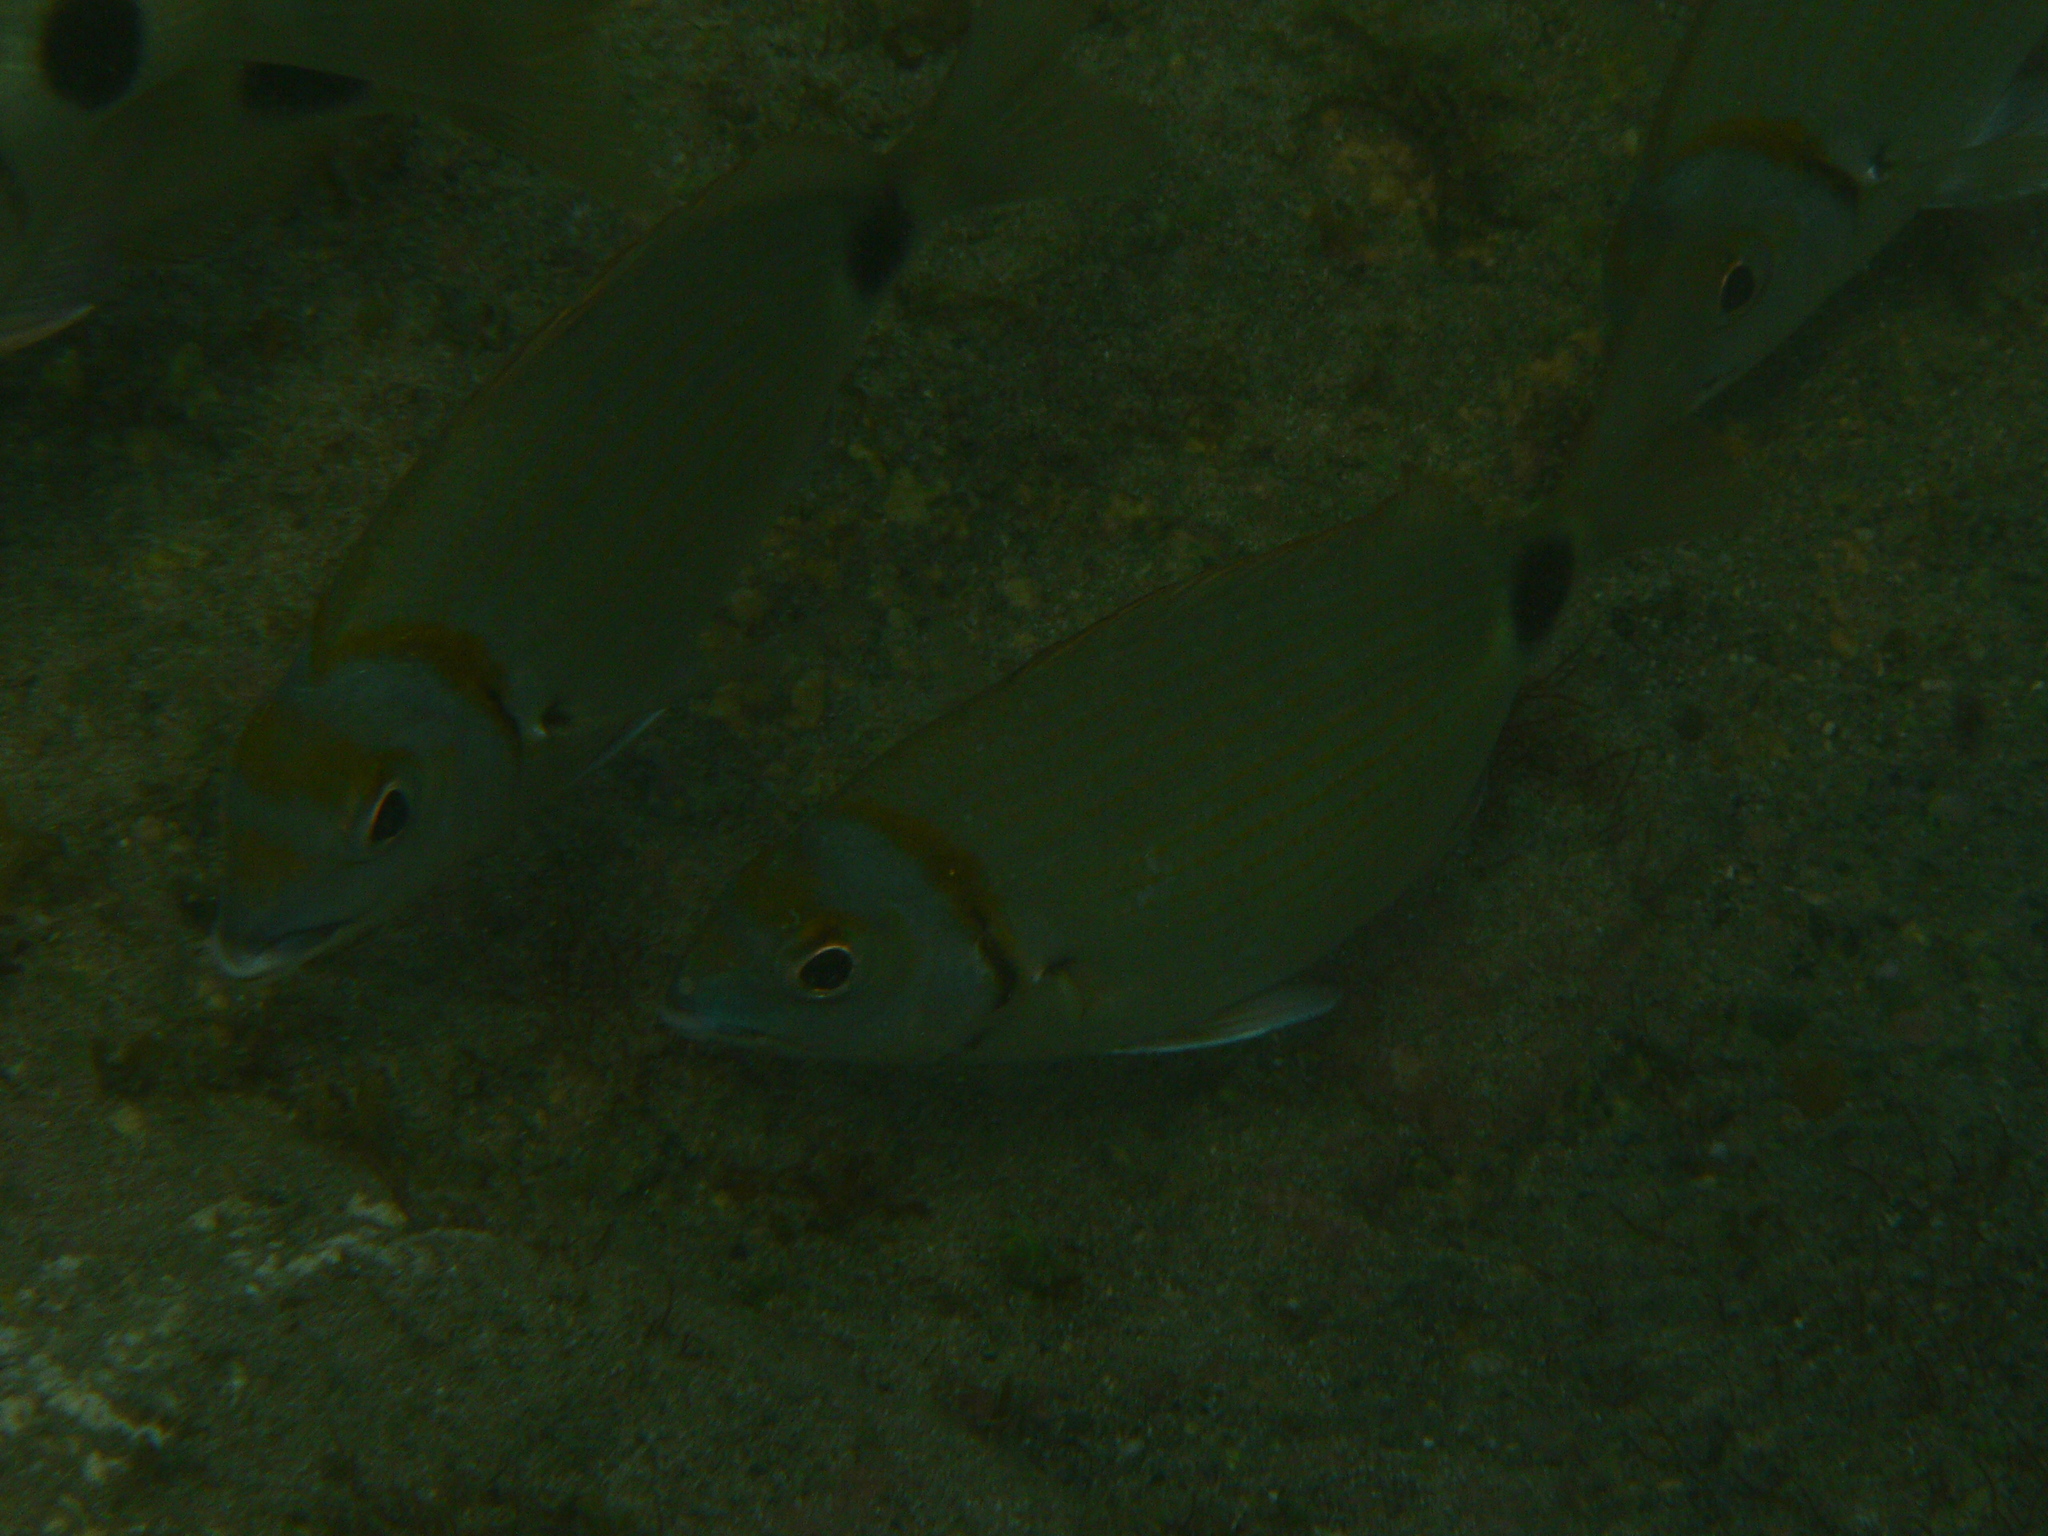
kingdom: Animalia
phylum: Chordata
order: Perciformes
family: Sparidae
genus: Diplodus
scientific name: Diplodus prayensis
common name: Two-banded seabream
